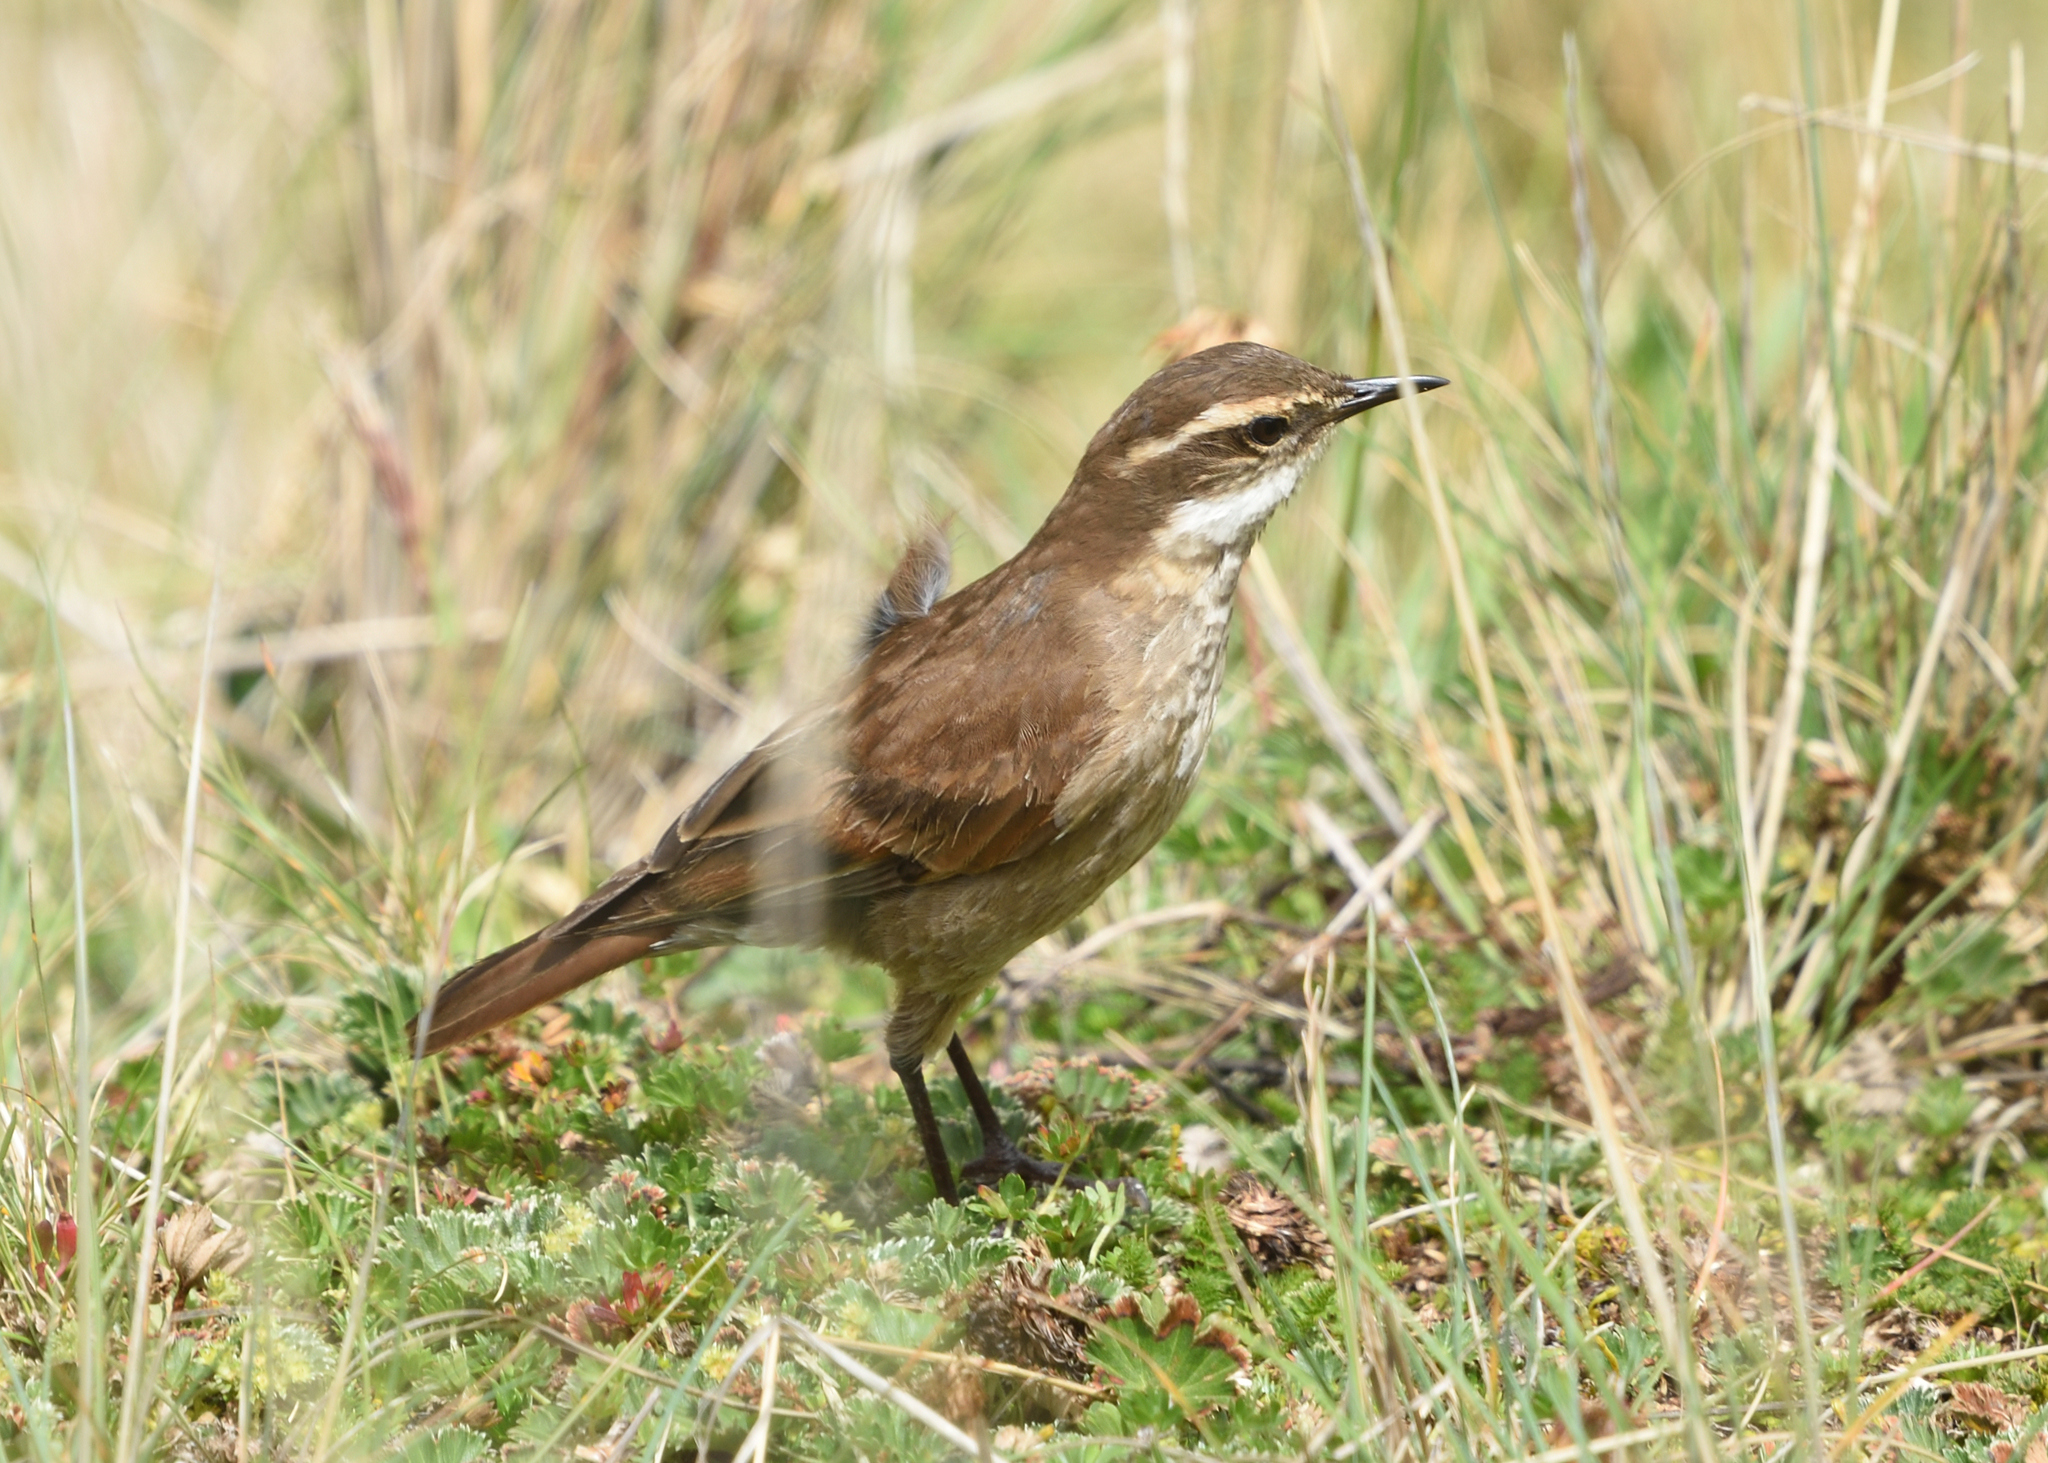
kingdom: Animalia
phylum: Chordata
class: Aves
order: Passeriformes
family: Furnariidae
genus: Cinclodes
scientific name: Cinclodes albidiventris
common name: Chestnut-winged cinclodes
